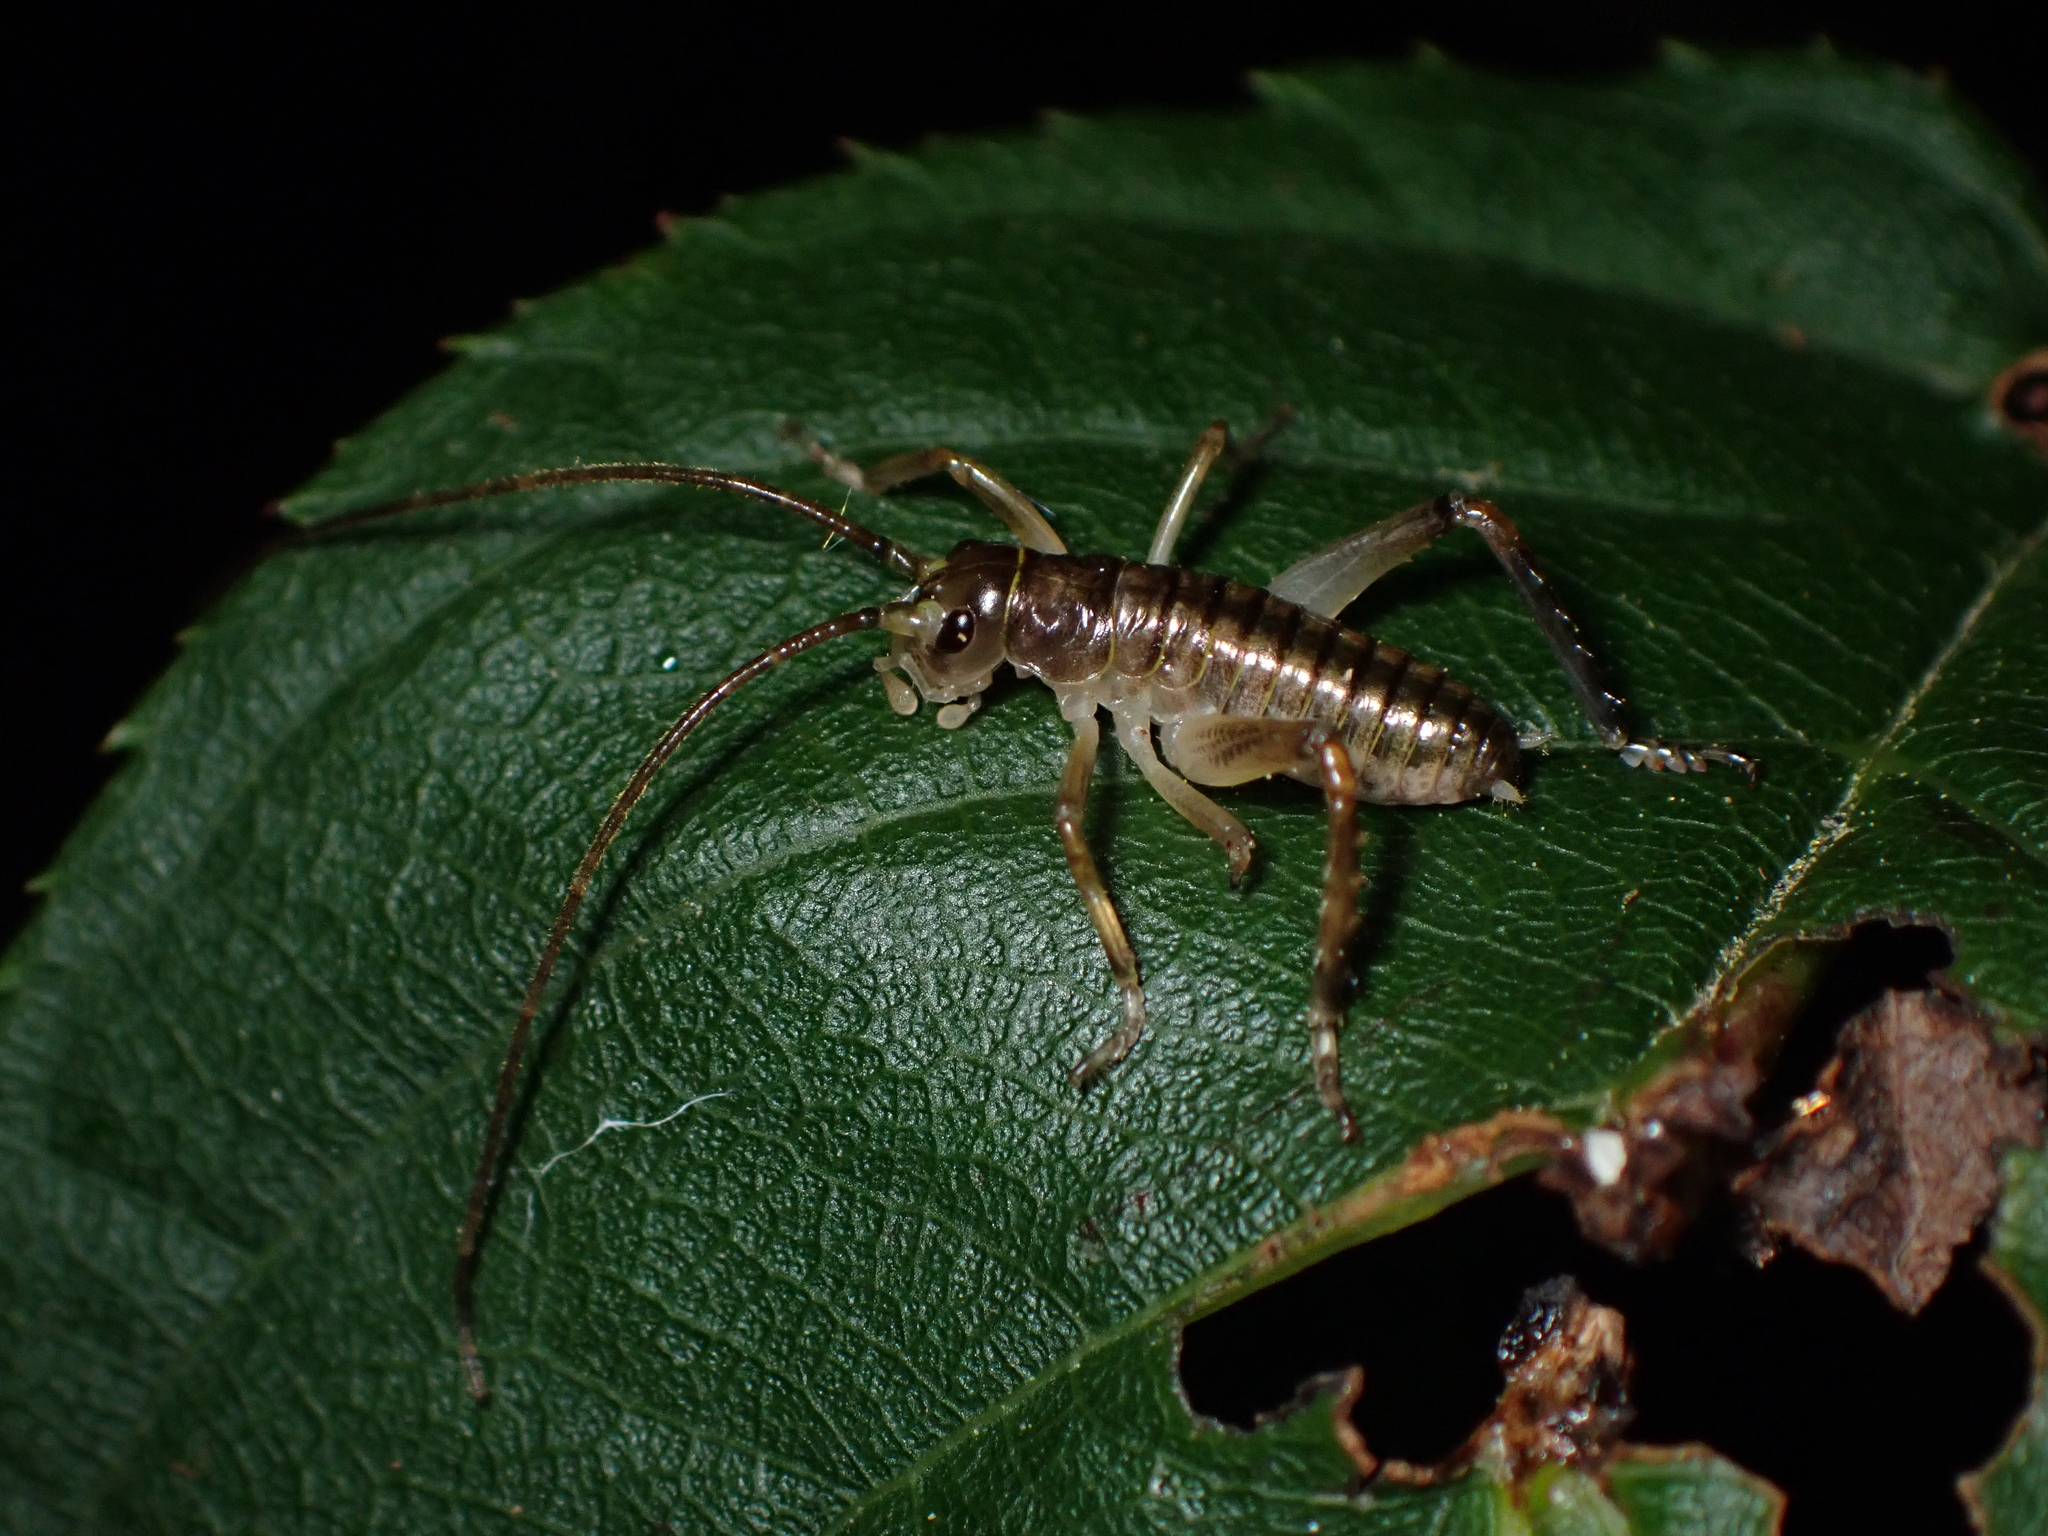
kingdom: Animalia
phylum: Arthropoda
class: Insecta
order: Orthoptera
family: Anostostomatidae
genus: Hemideina
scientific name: Hemideina thoracica
